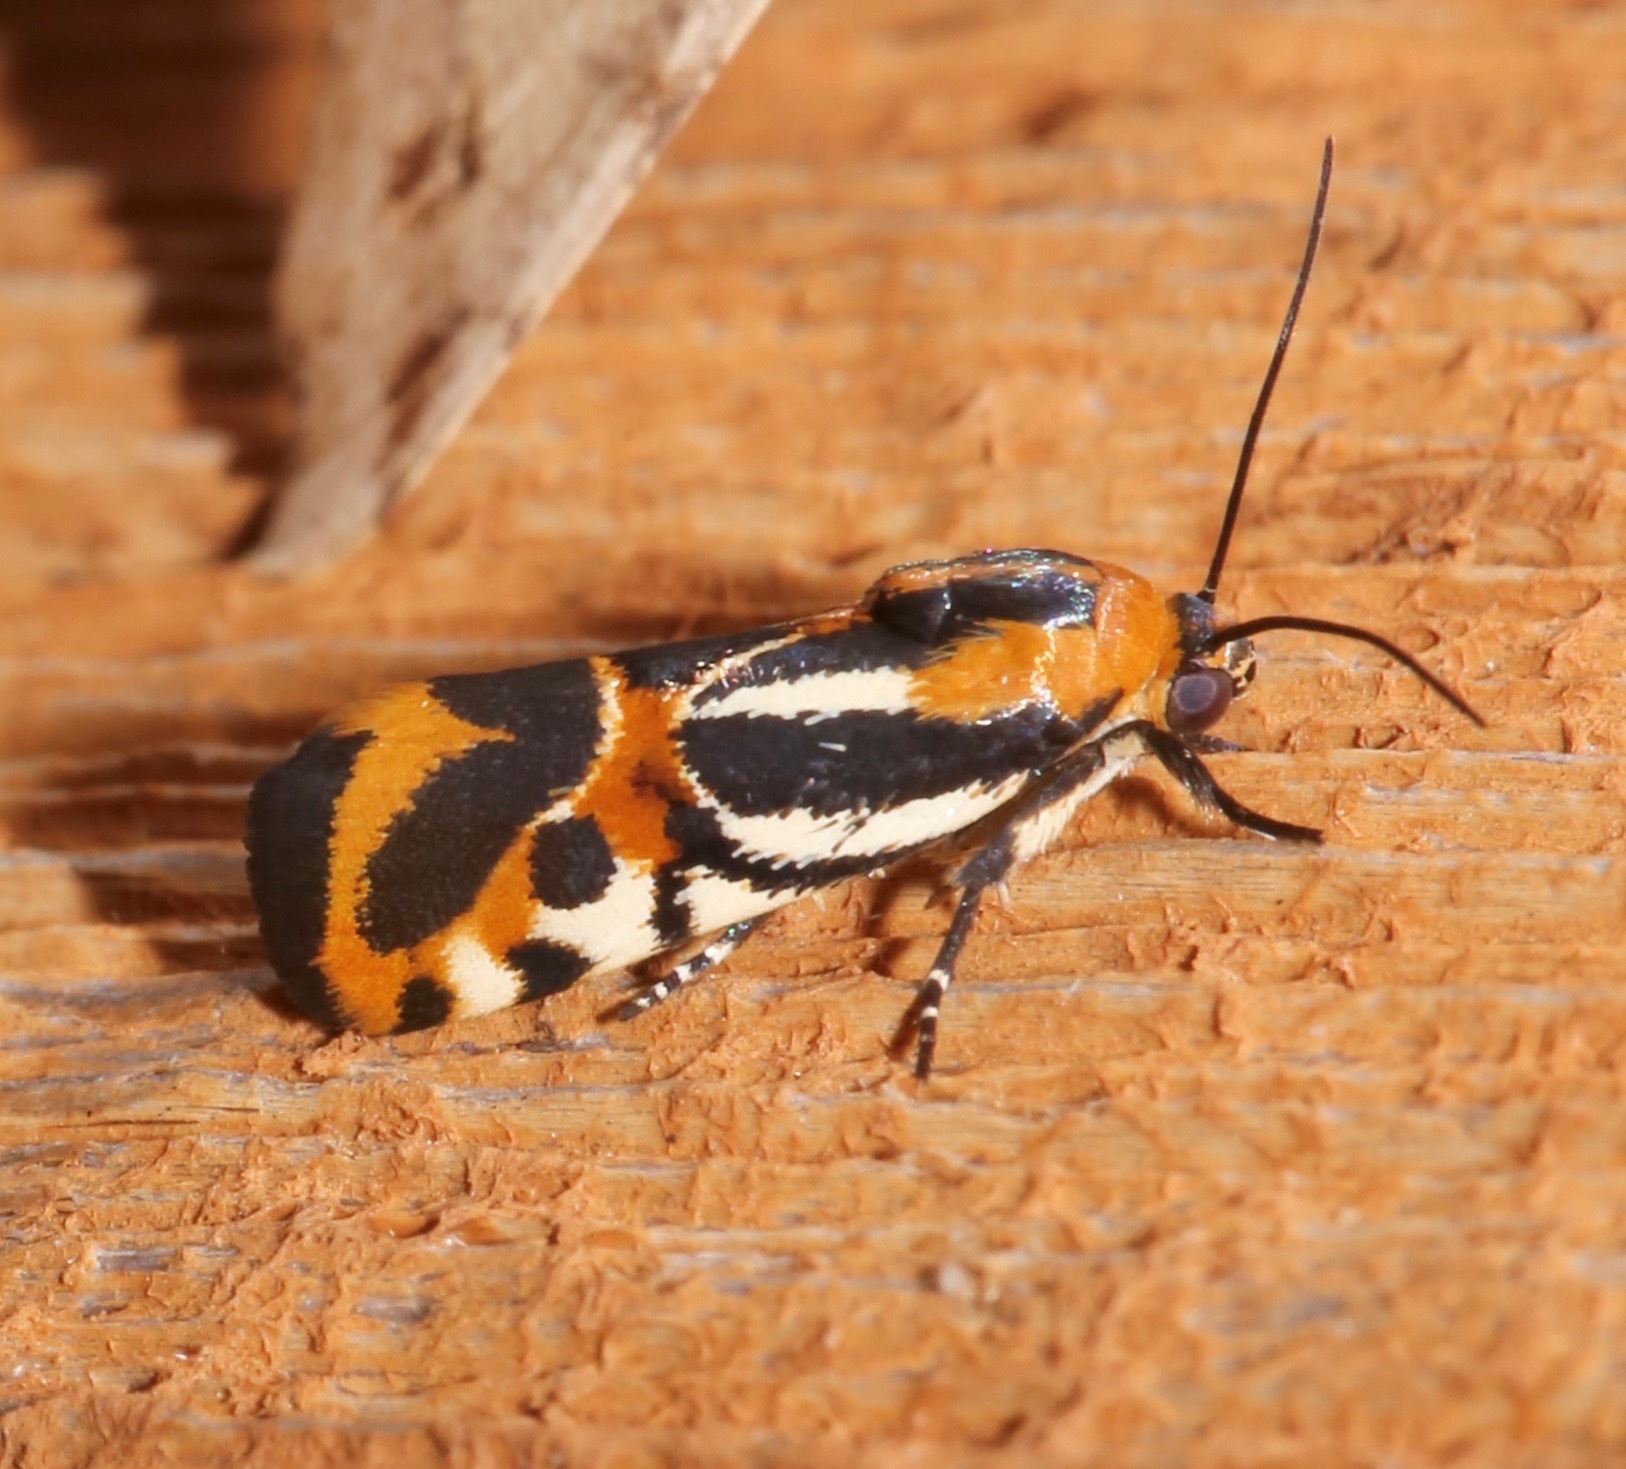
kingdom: Animalia
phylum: Arthropoda
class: Insecta
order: Lepidoptera
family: Noctuidae
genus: Acontia
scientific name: Acontia onagrus
